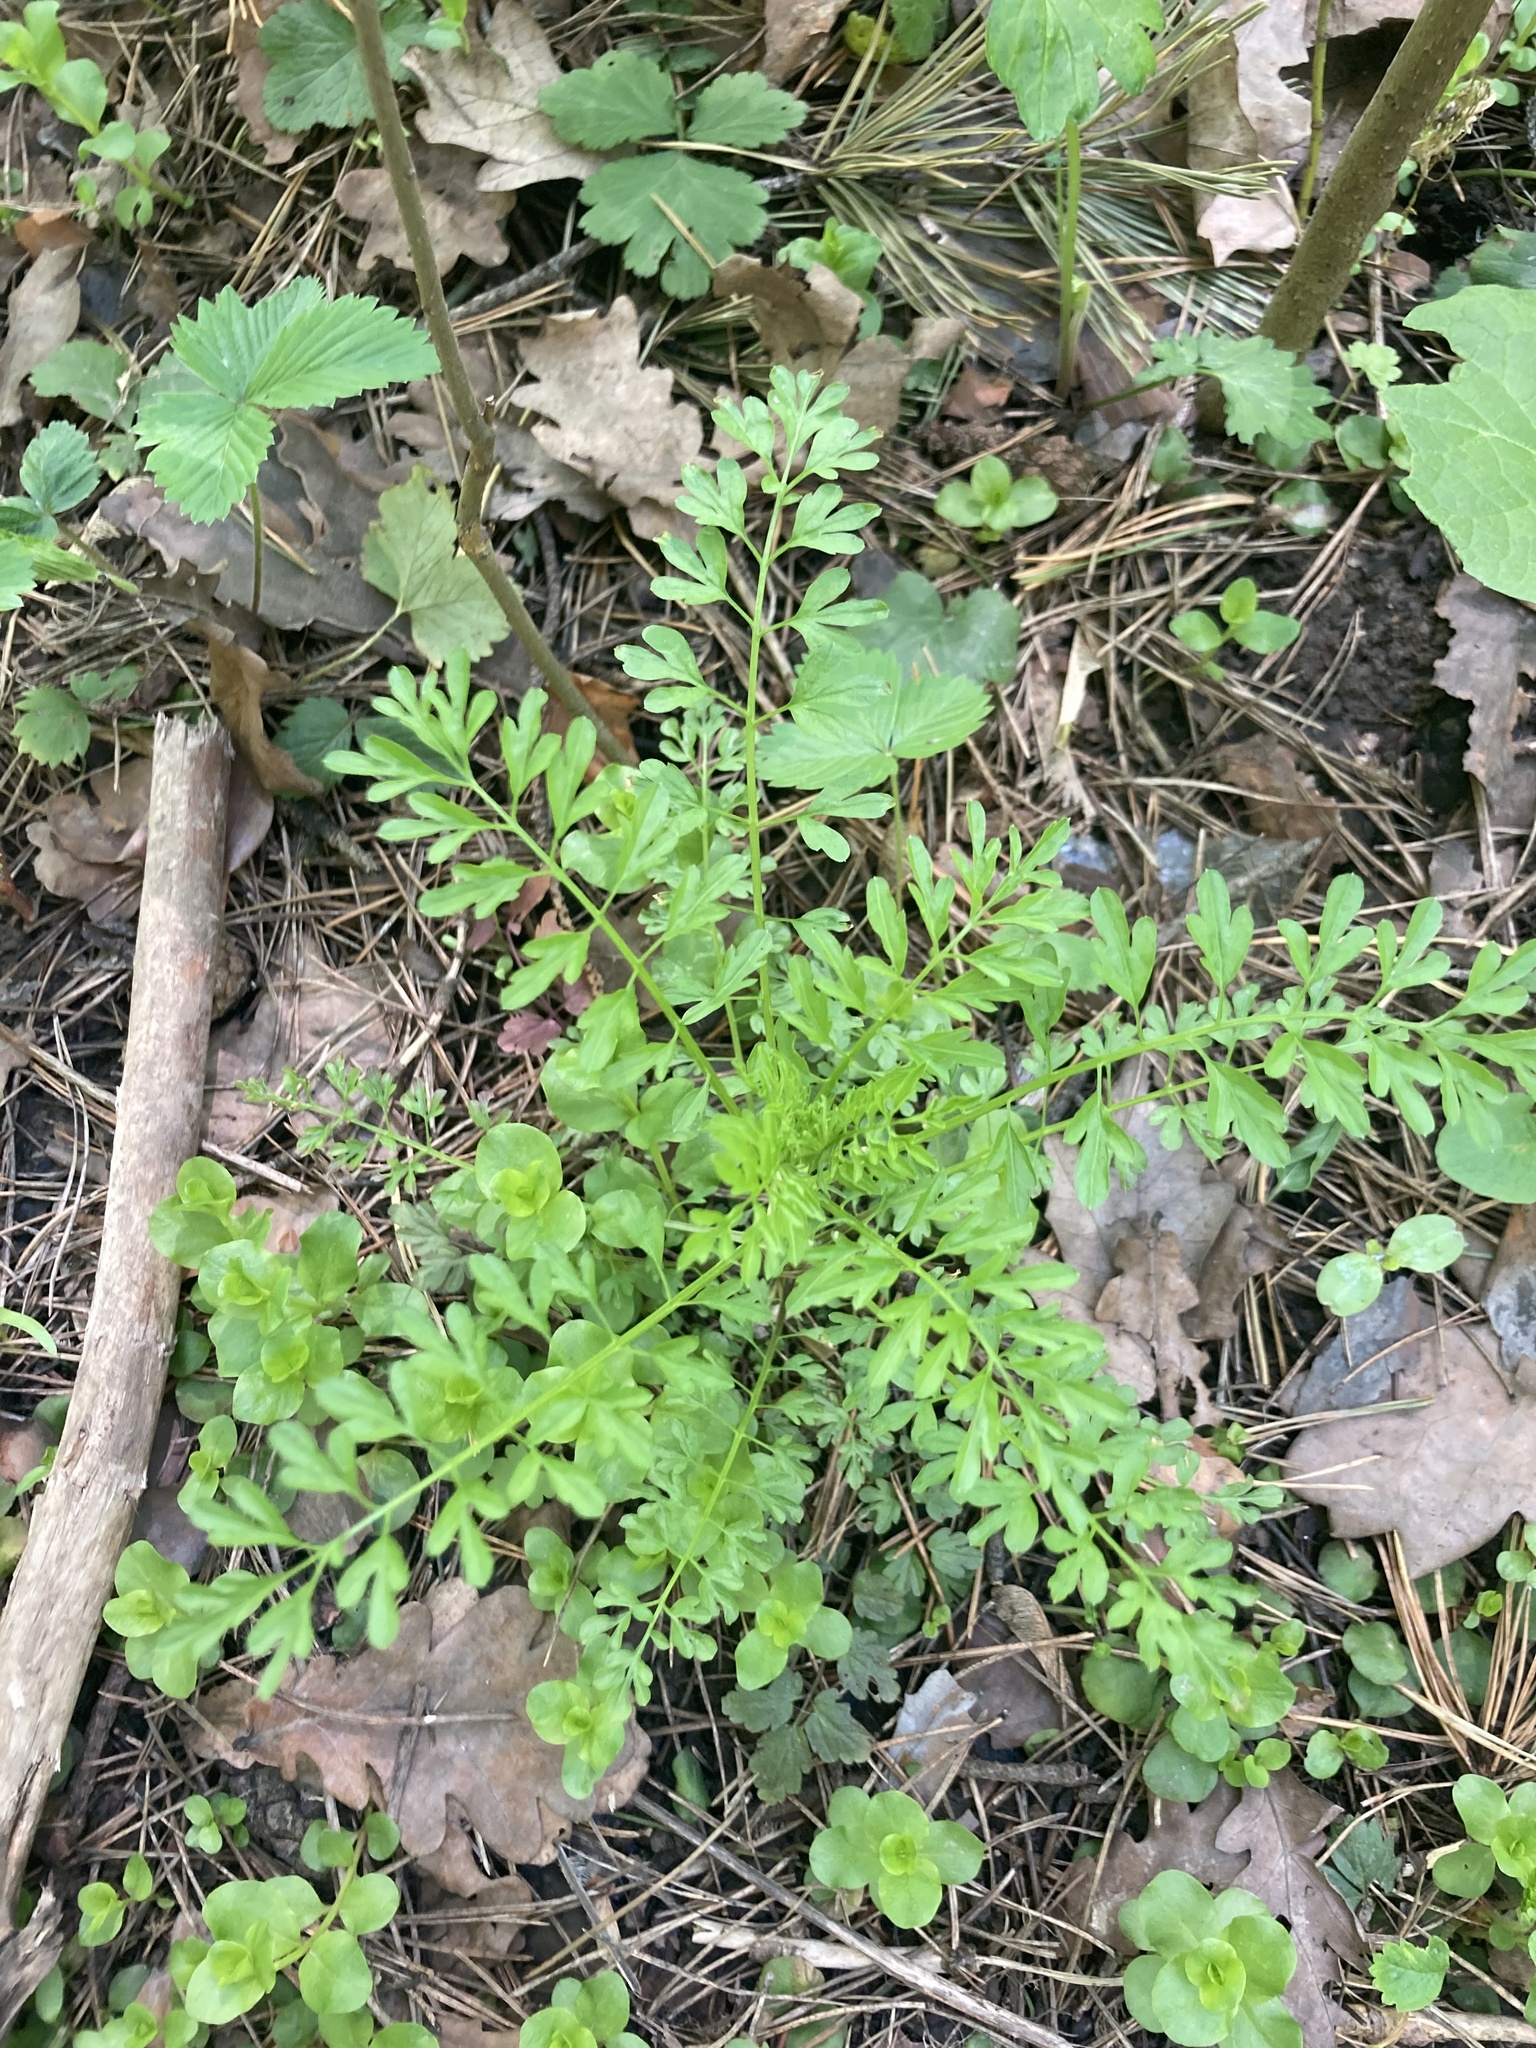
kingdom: Plantae
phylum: Tracheophyta
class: Magnoliopsida
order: Brassicales
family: Brassicaceae
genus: Cardamine
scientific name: Cardamine impatiens
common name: Narrow-leaved bitter-cress
